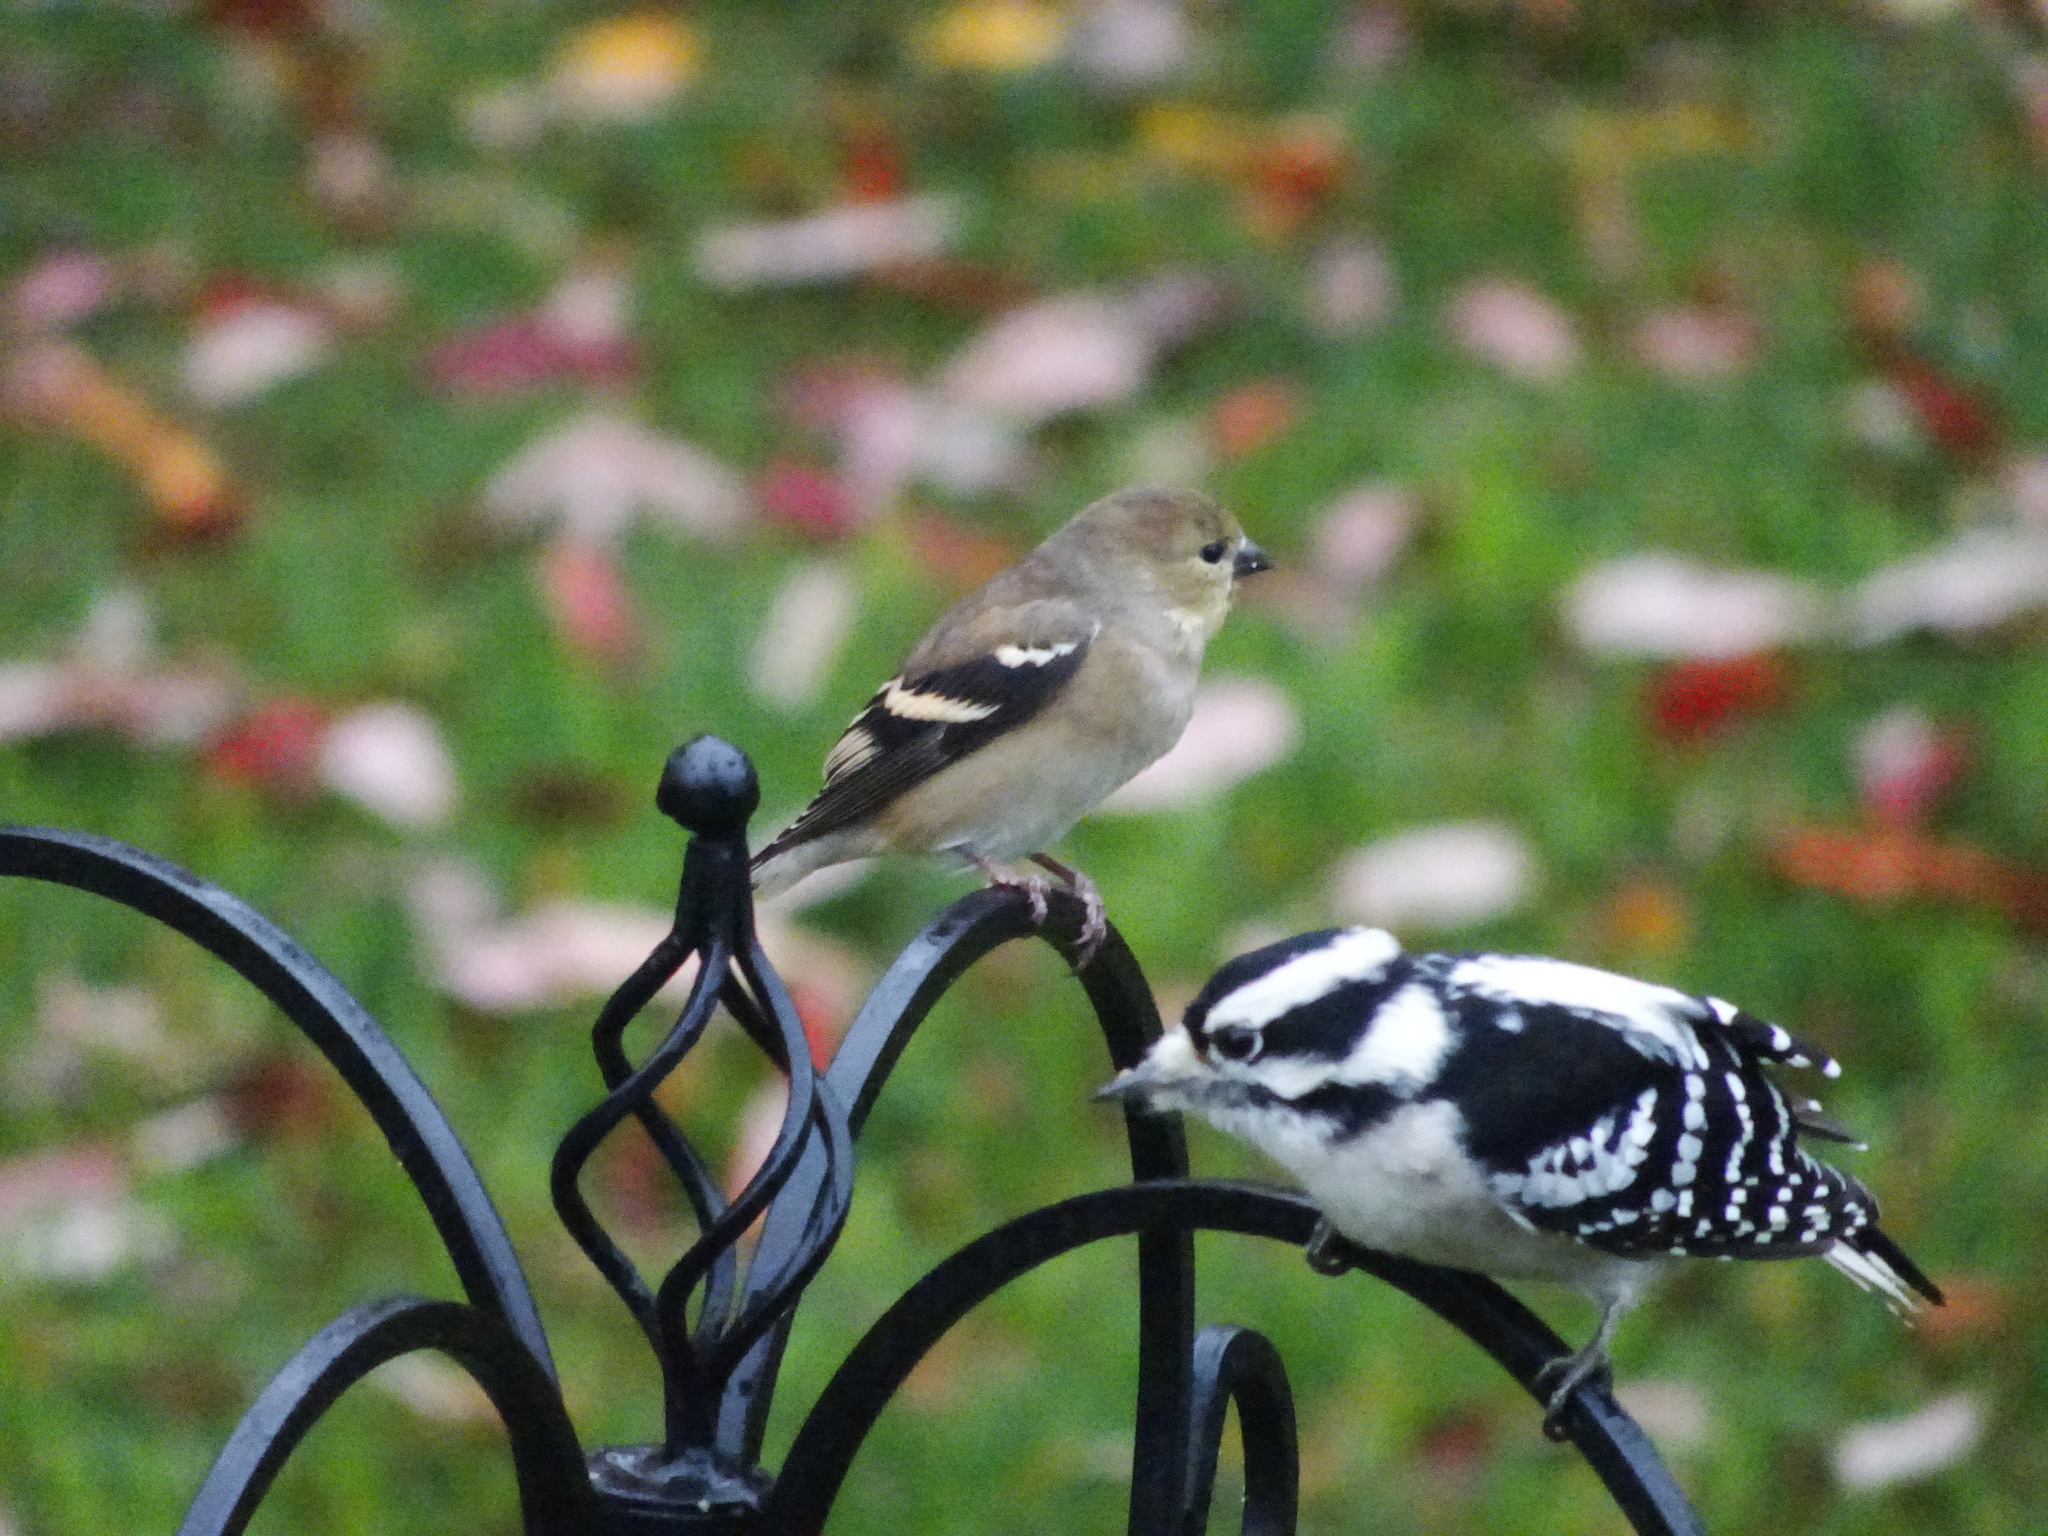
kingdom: Animalia
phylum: Chordata
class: Aves
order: Passeriformes
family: Fringillidae
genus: Spinus
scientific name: Spinus tristis
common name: American goldfinch
